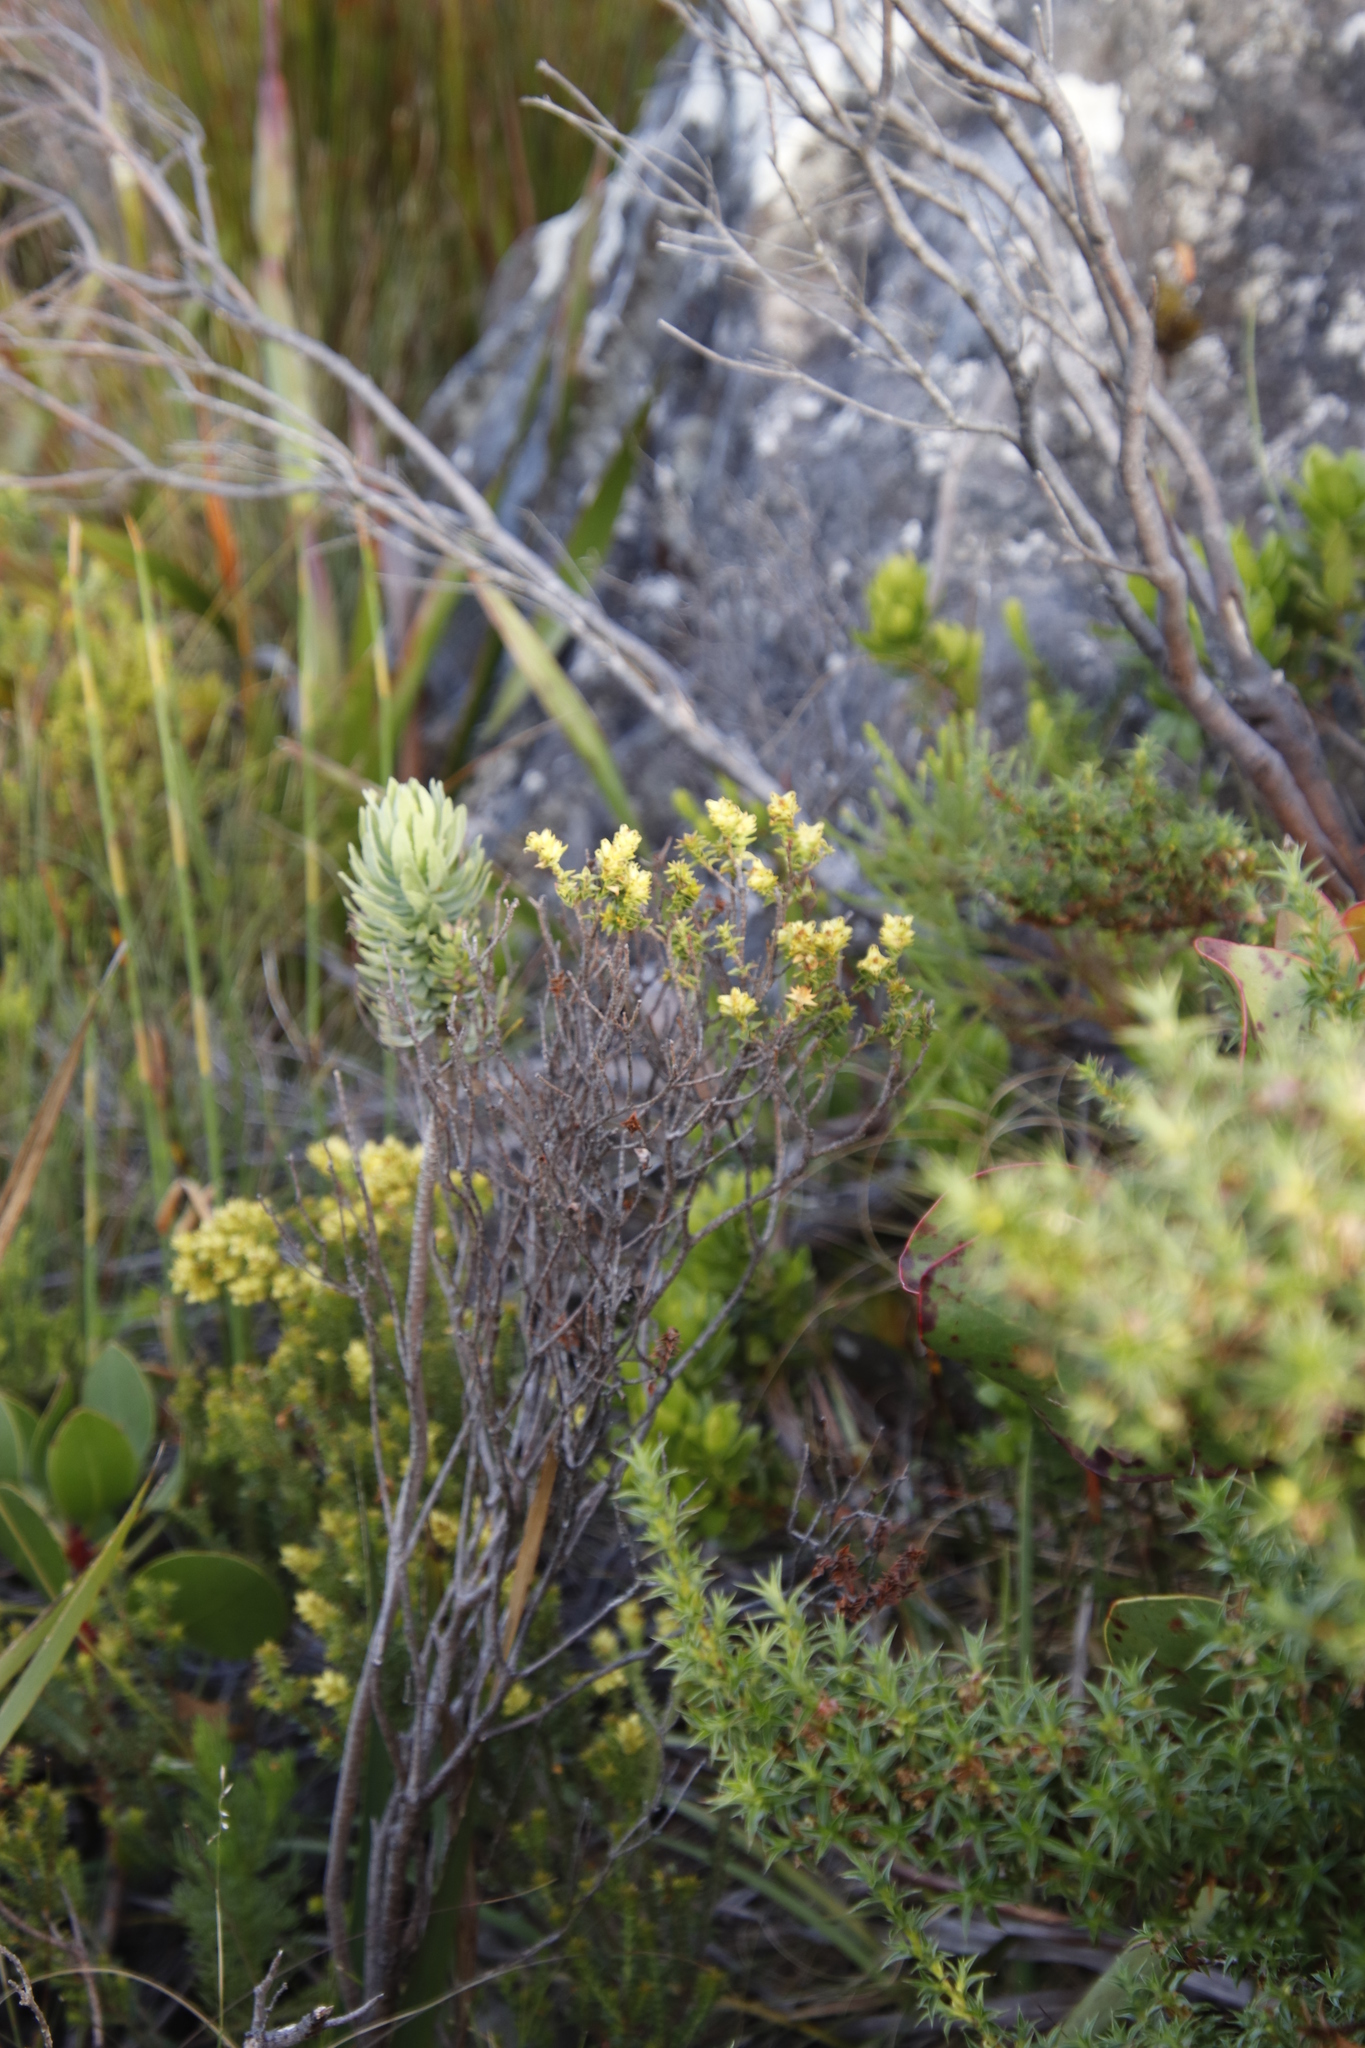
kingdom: Plantae
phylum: Tracheophyta
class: Magnoliopsida
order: Myrtales
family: Penaeaceae
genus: Penaea
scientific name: Penaea mucronata
